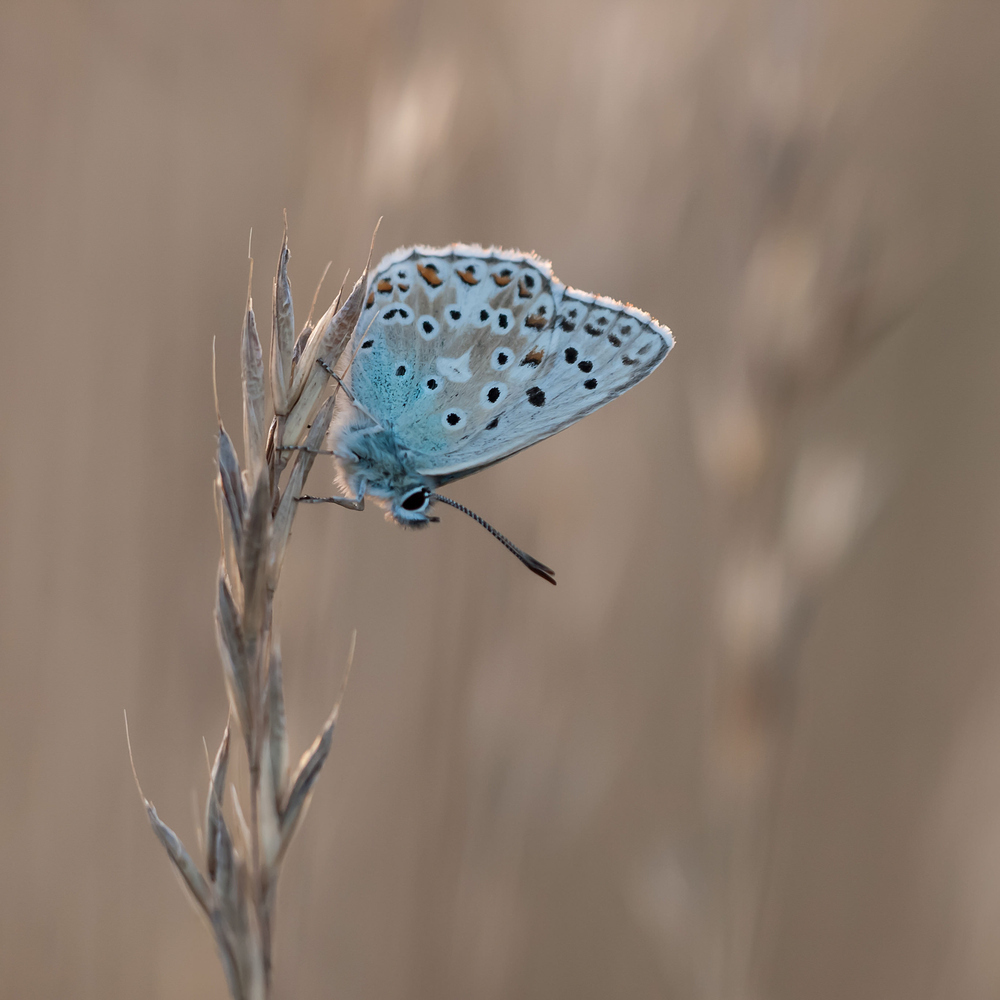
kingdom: Animalia
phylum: Arthropoda
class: Insecta
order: Lepidoptera
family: Lycaenidae
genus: Lysandra
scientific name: Lysandra coridon
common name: Chalkhill blue
